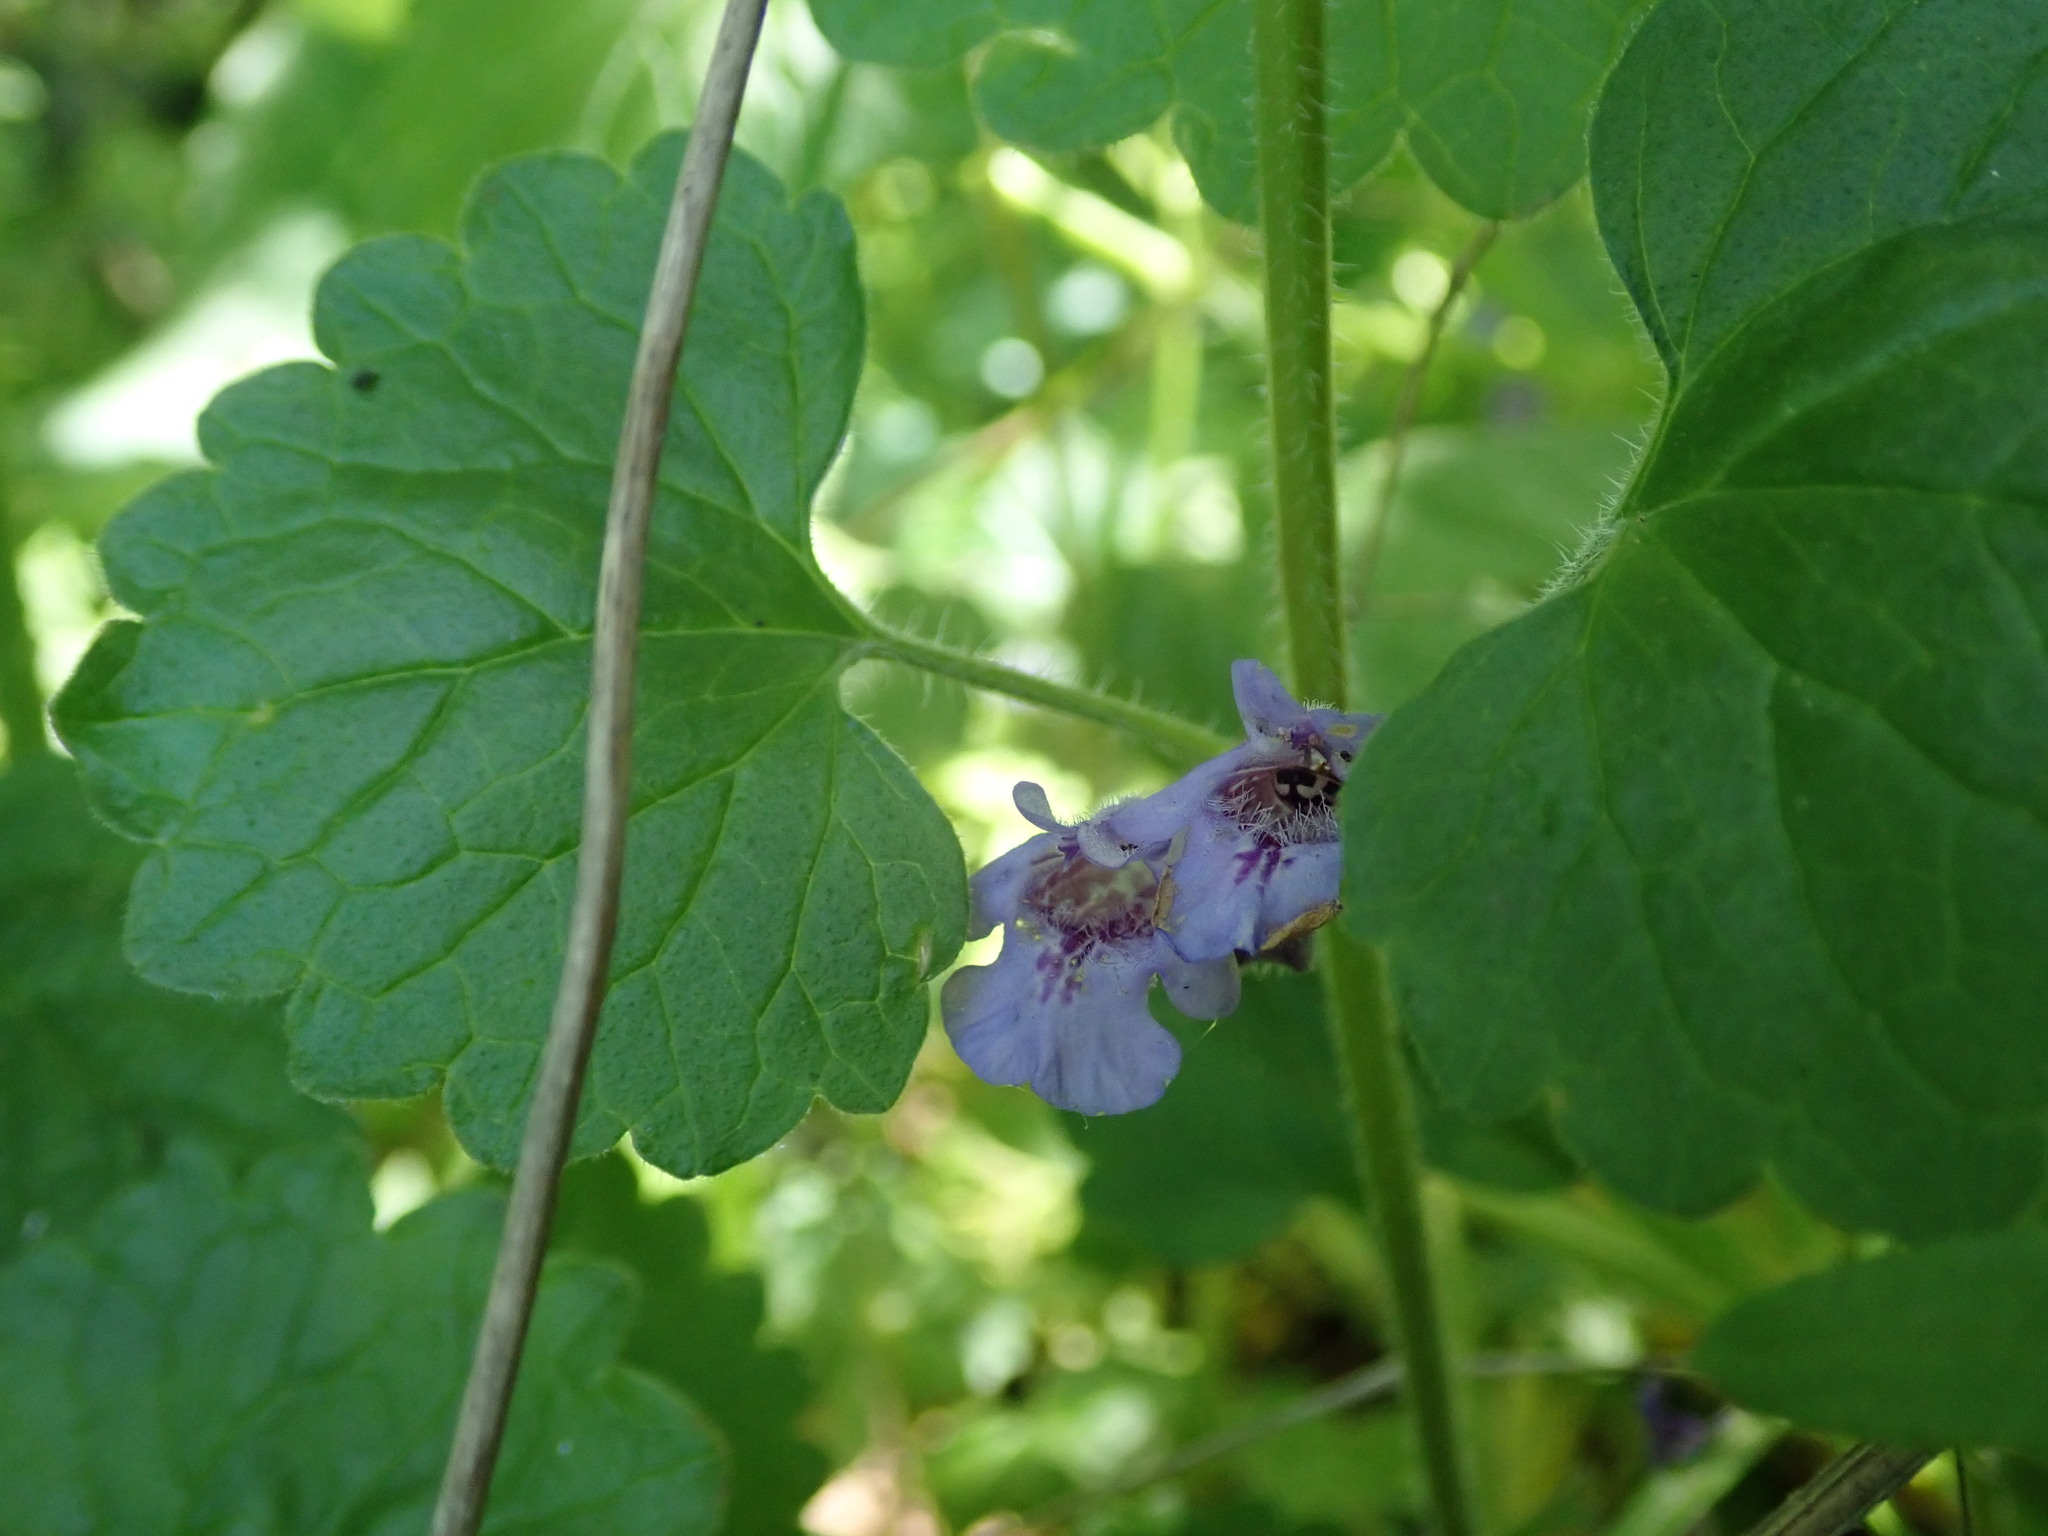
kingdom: Plantae
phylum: Tracheophyta
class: Magnoliopsida
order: Lamiales
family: Lamiaceae
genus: Glechoma
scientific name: Glechoma hederacea
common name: Ground ivy
